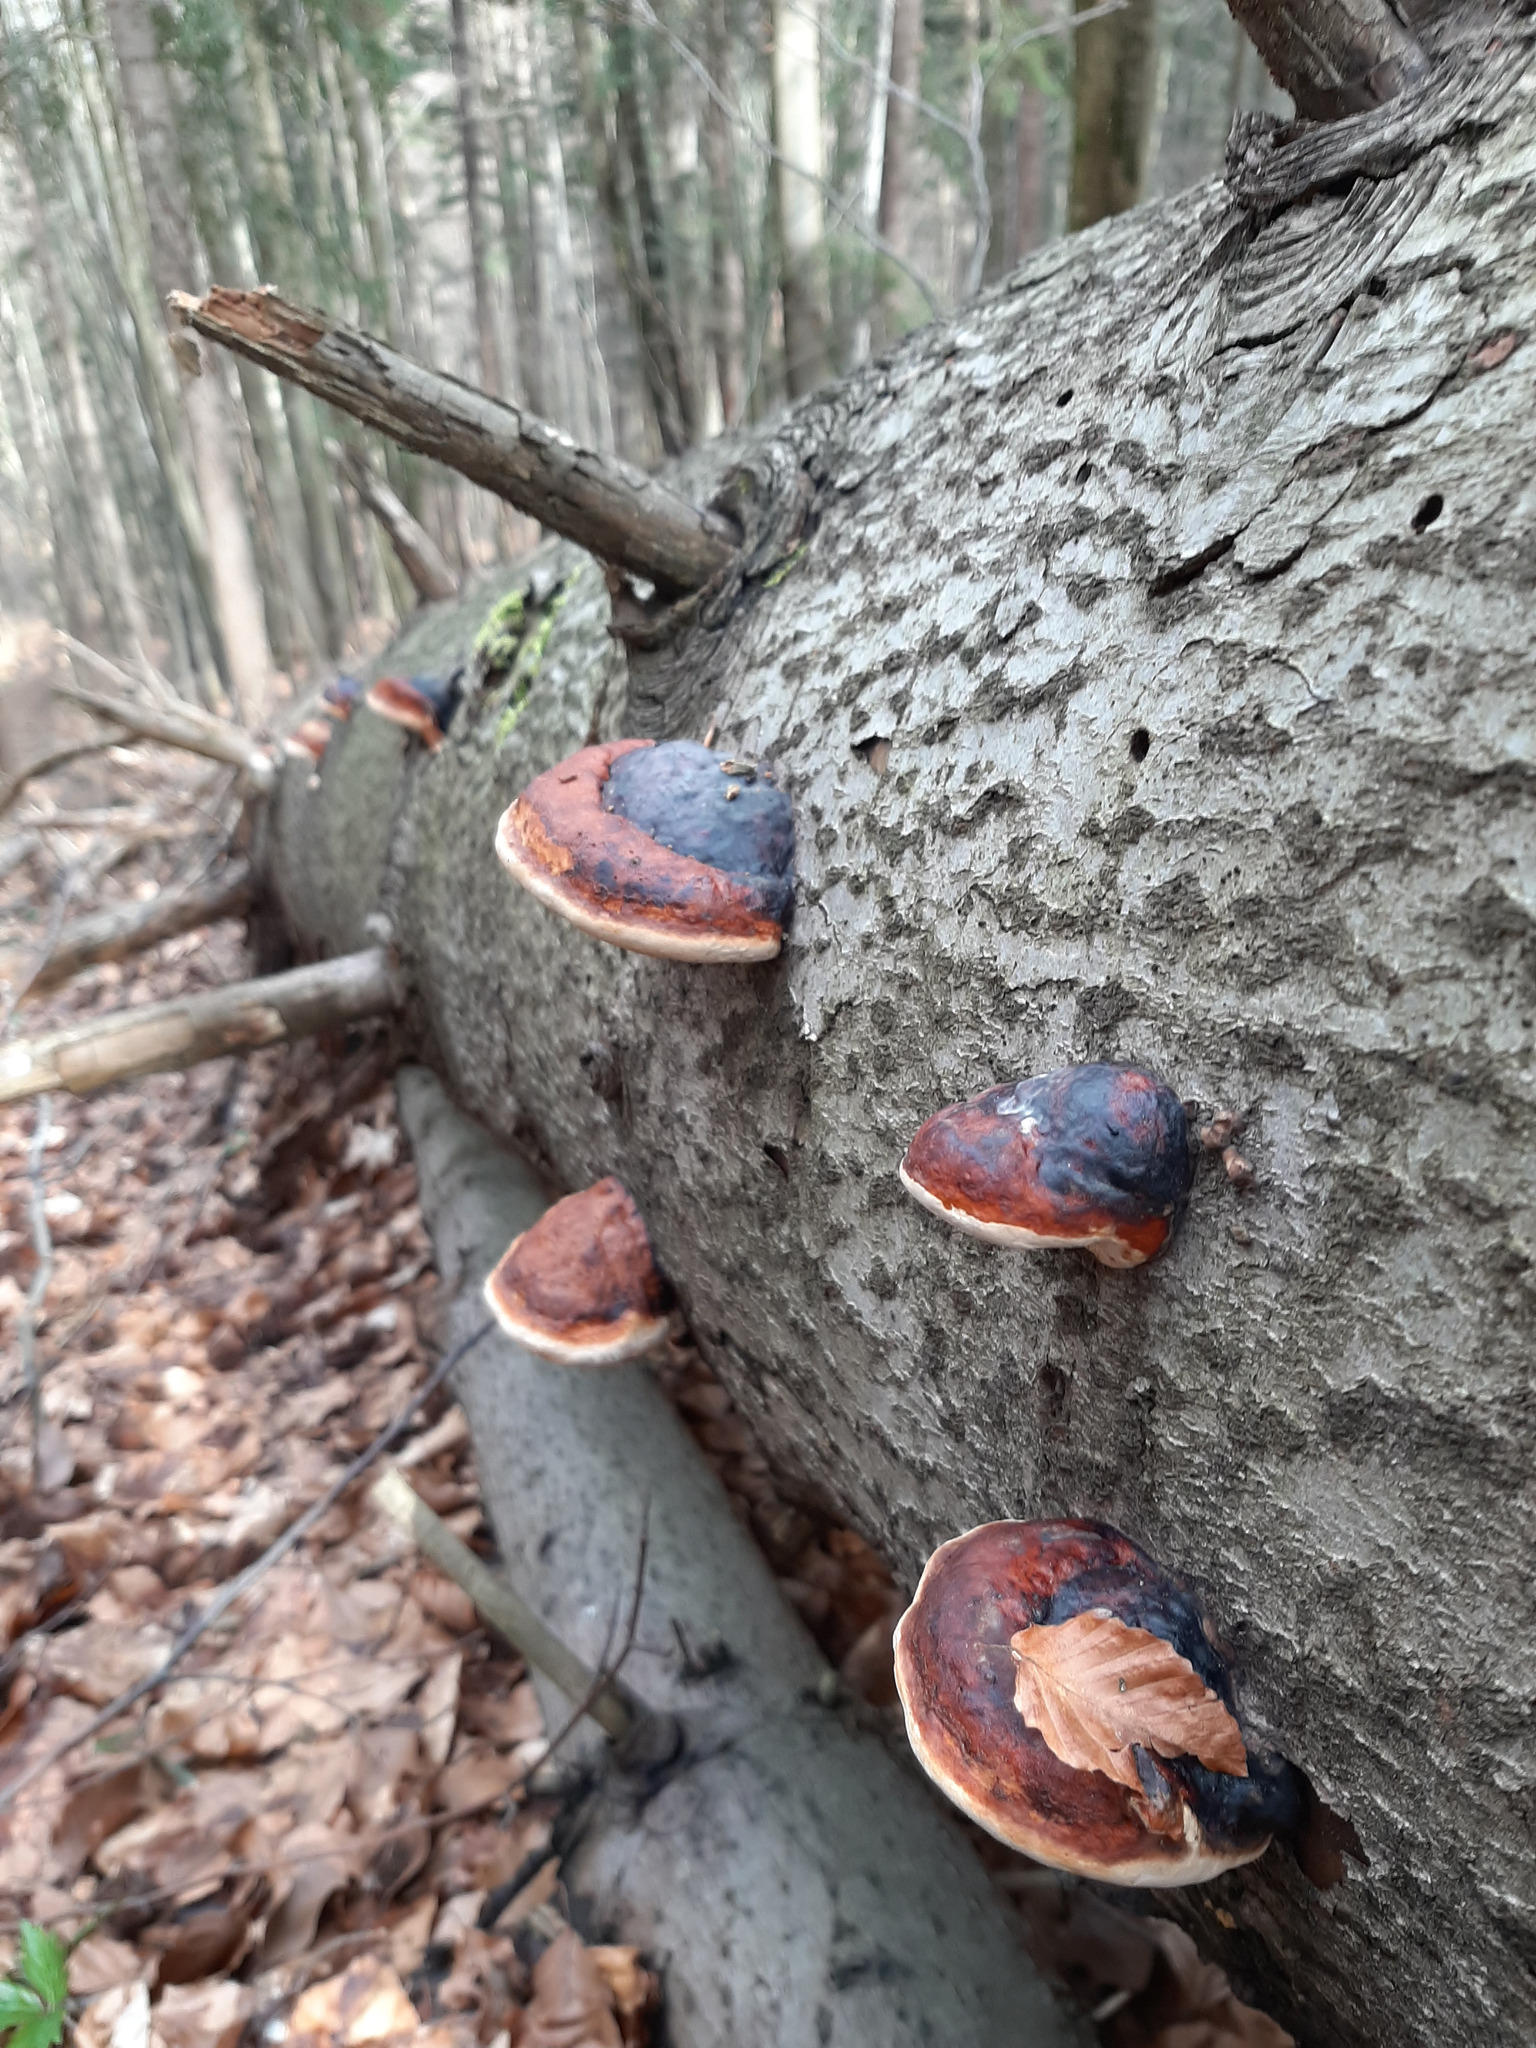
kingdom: Fungi
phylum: Basidiomycota
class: Agaricomycetes
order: Polyporales
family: Fomitopsidaceae
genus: Fomitopsis
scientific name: Fomitopsis pinicola
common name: Red-belted bracket
